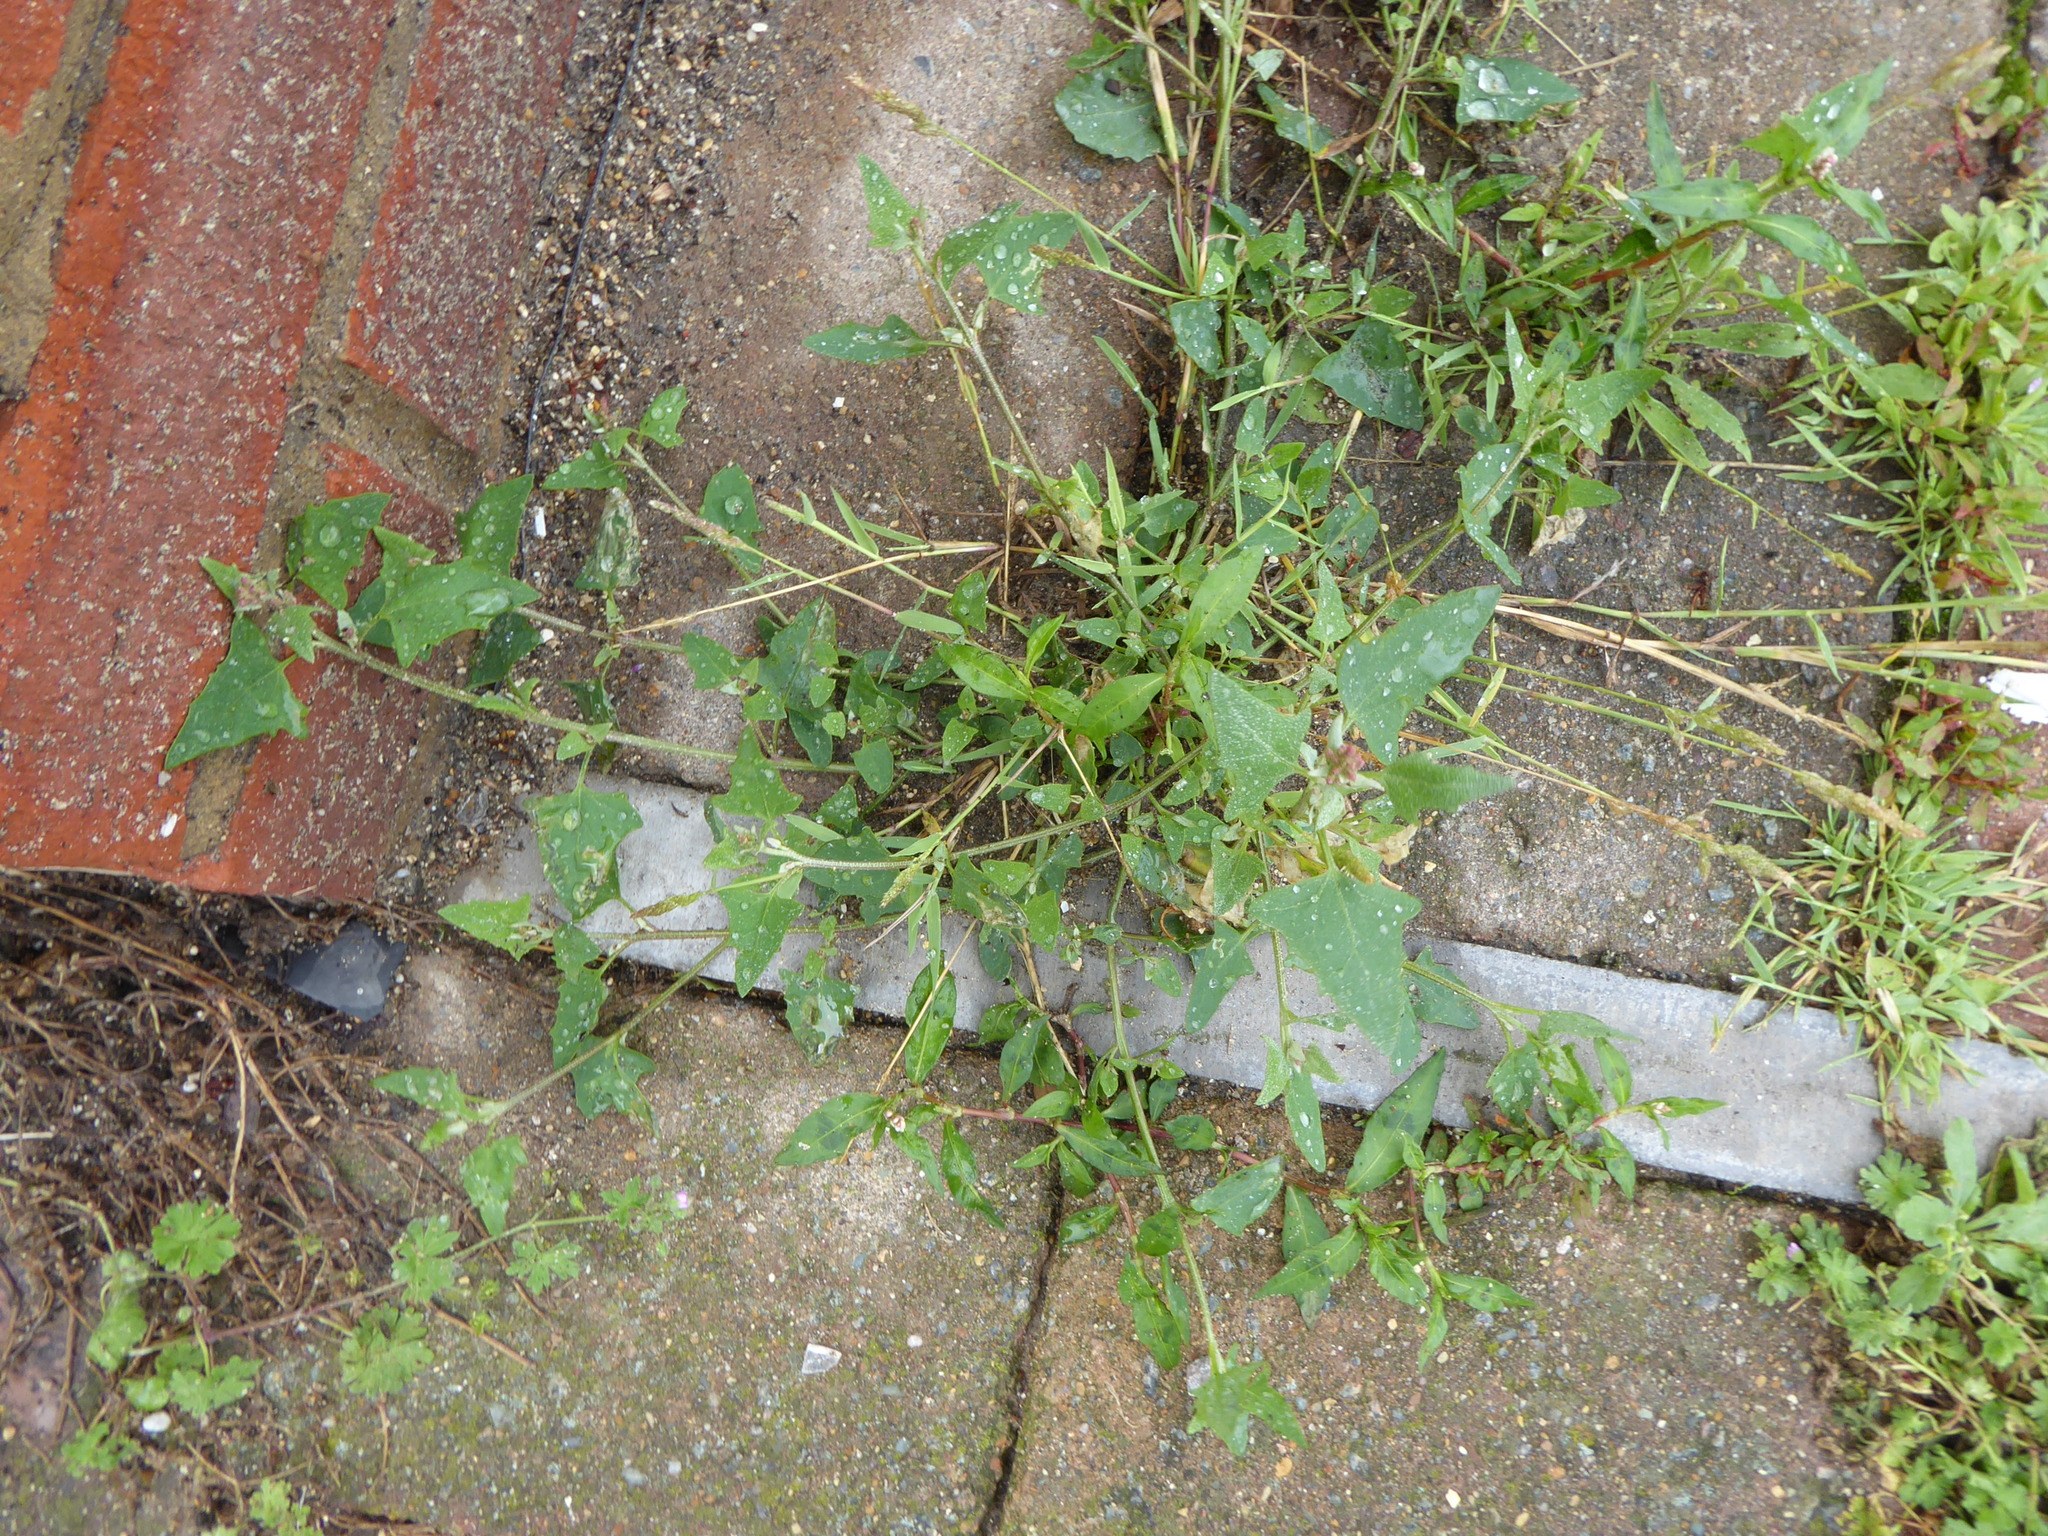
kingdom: Plantae
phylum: Tracheophyta
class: Magnoliopsida
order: Caryophyllales
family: Amaranthaceae
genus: Atriplex
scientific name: Atriplex prostrata
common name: Spear-leaved orache
